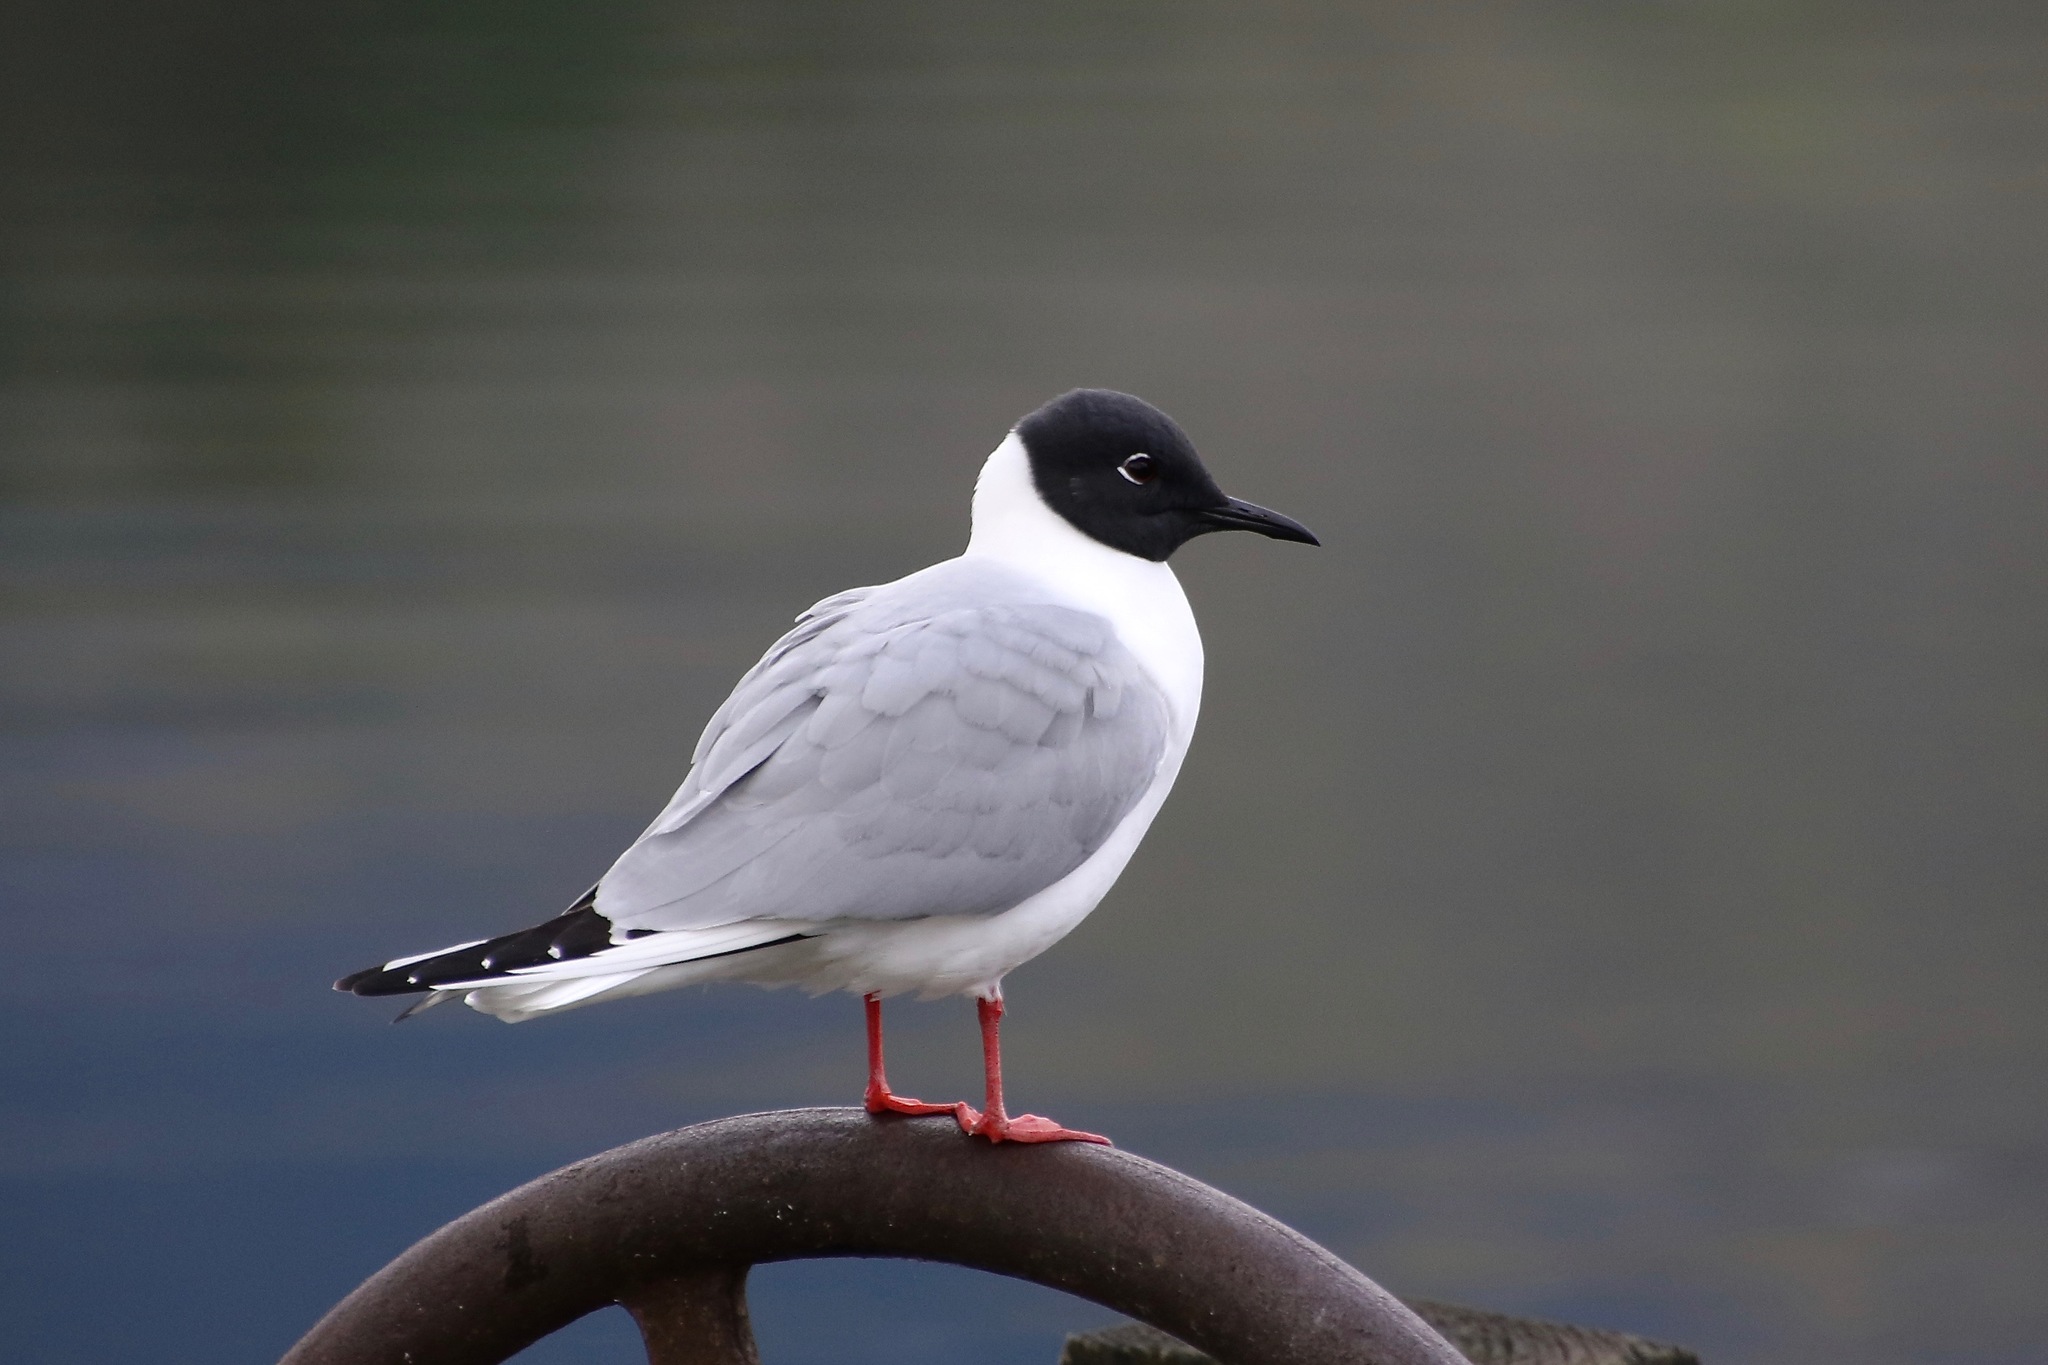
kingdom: Animalia
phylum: Chordata
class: Aves
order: Charadriiformes
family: Laridae
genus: Chroicocephalus
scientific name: Chroicocephalus philadelphia
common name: Bonaparte's gull
